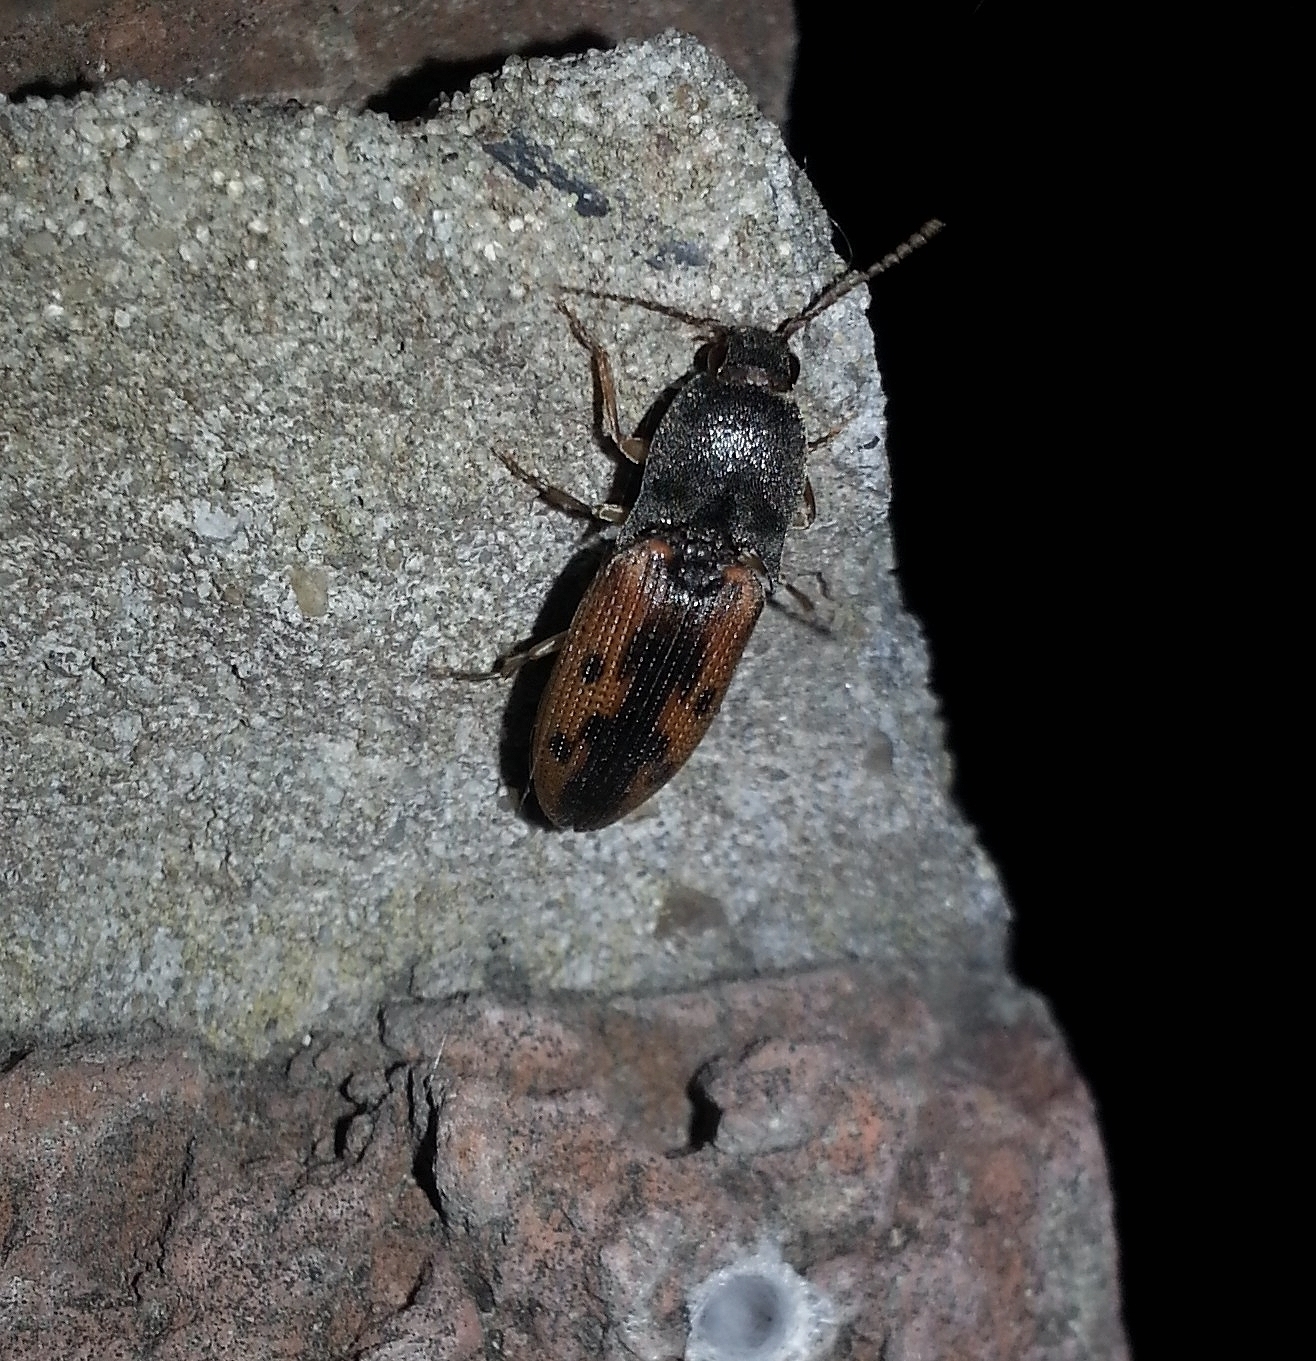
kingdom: Animalia
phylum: Arthropoda
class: Insecta
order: Coleoptera
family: Elateridae
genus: Monocrepidius
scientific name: Monocrepidius
